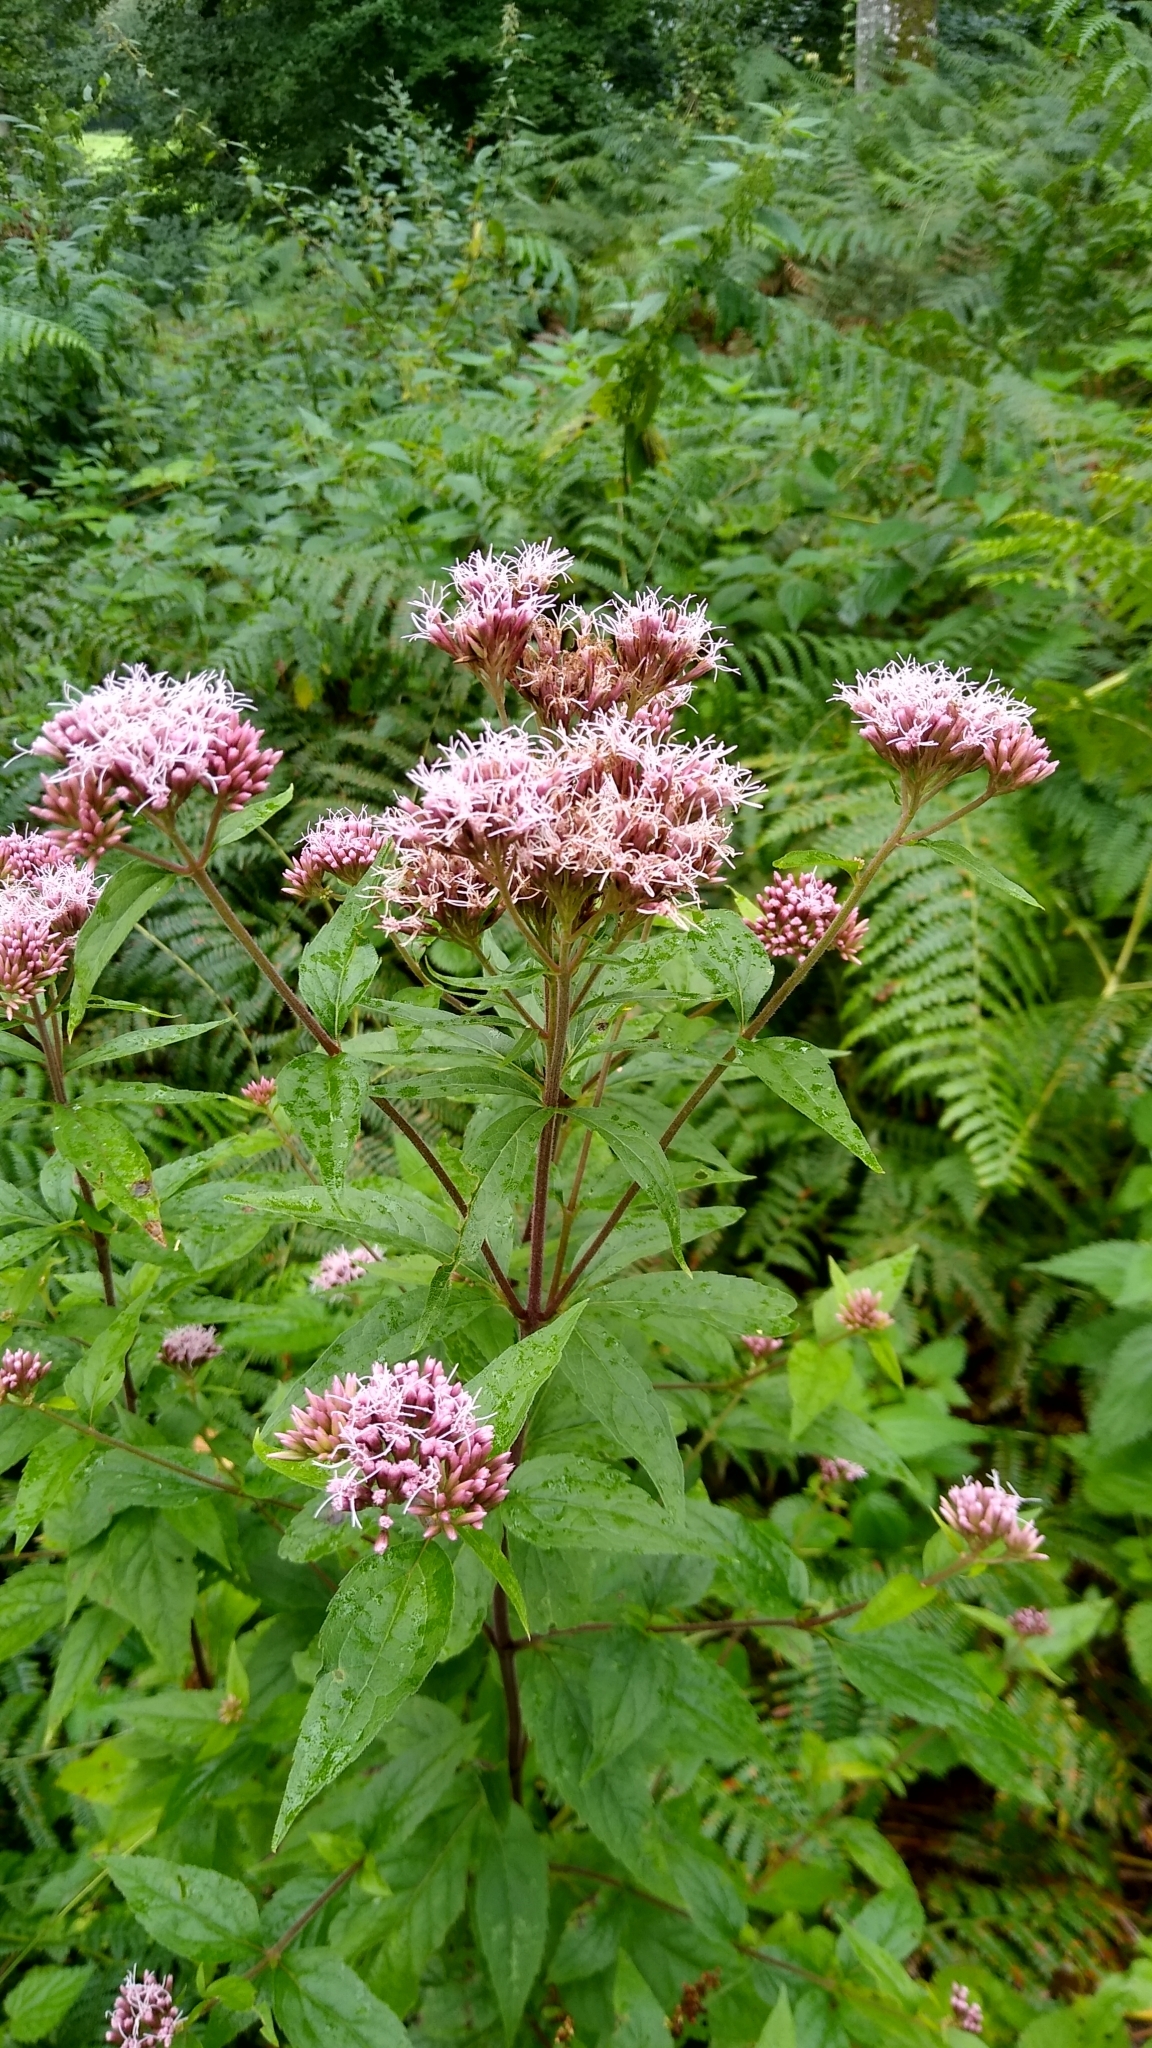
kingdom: Plantae
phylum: Tracheophyta
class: Magnoliopsida
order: Asterales
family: Asteraceae
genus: Eupatorium
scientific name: Eupatorium cannabinum
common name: Hemp-agrimony
